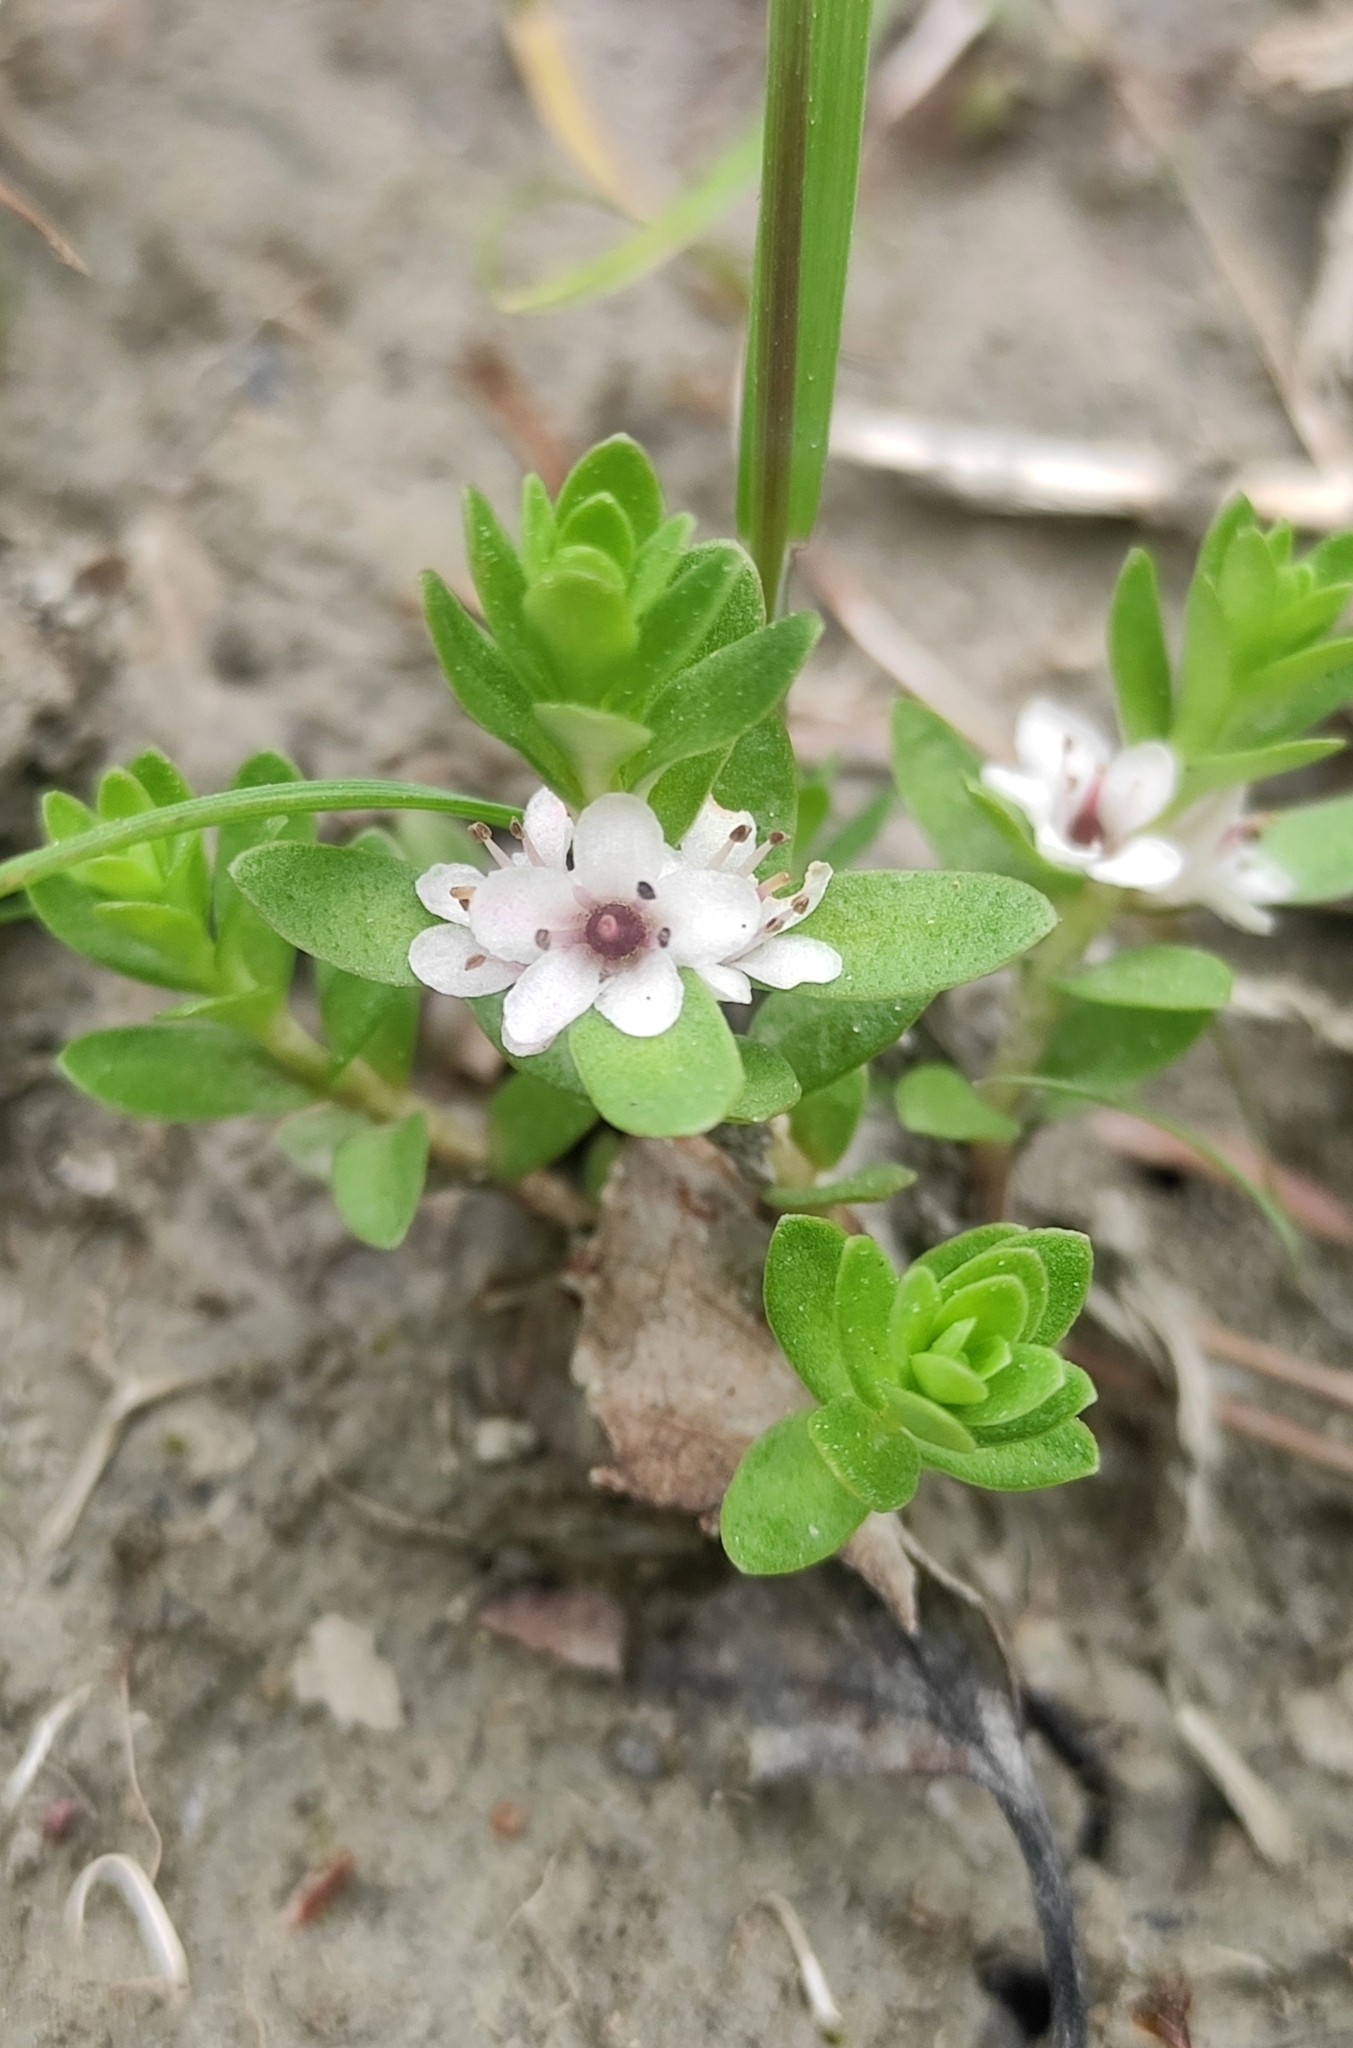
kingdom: Plantae
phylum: Tracheophyta
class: Magnoliopsida
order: Ericales
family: Primulaceae
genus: Lysimachia
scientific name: Lysimachia maritima
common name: Sea milkwort
